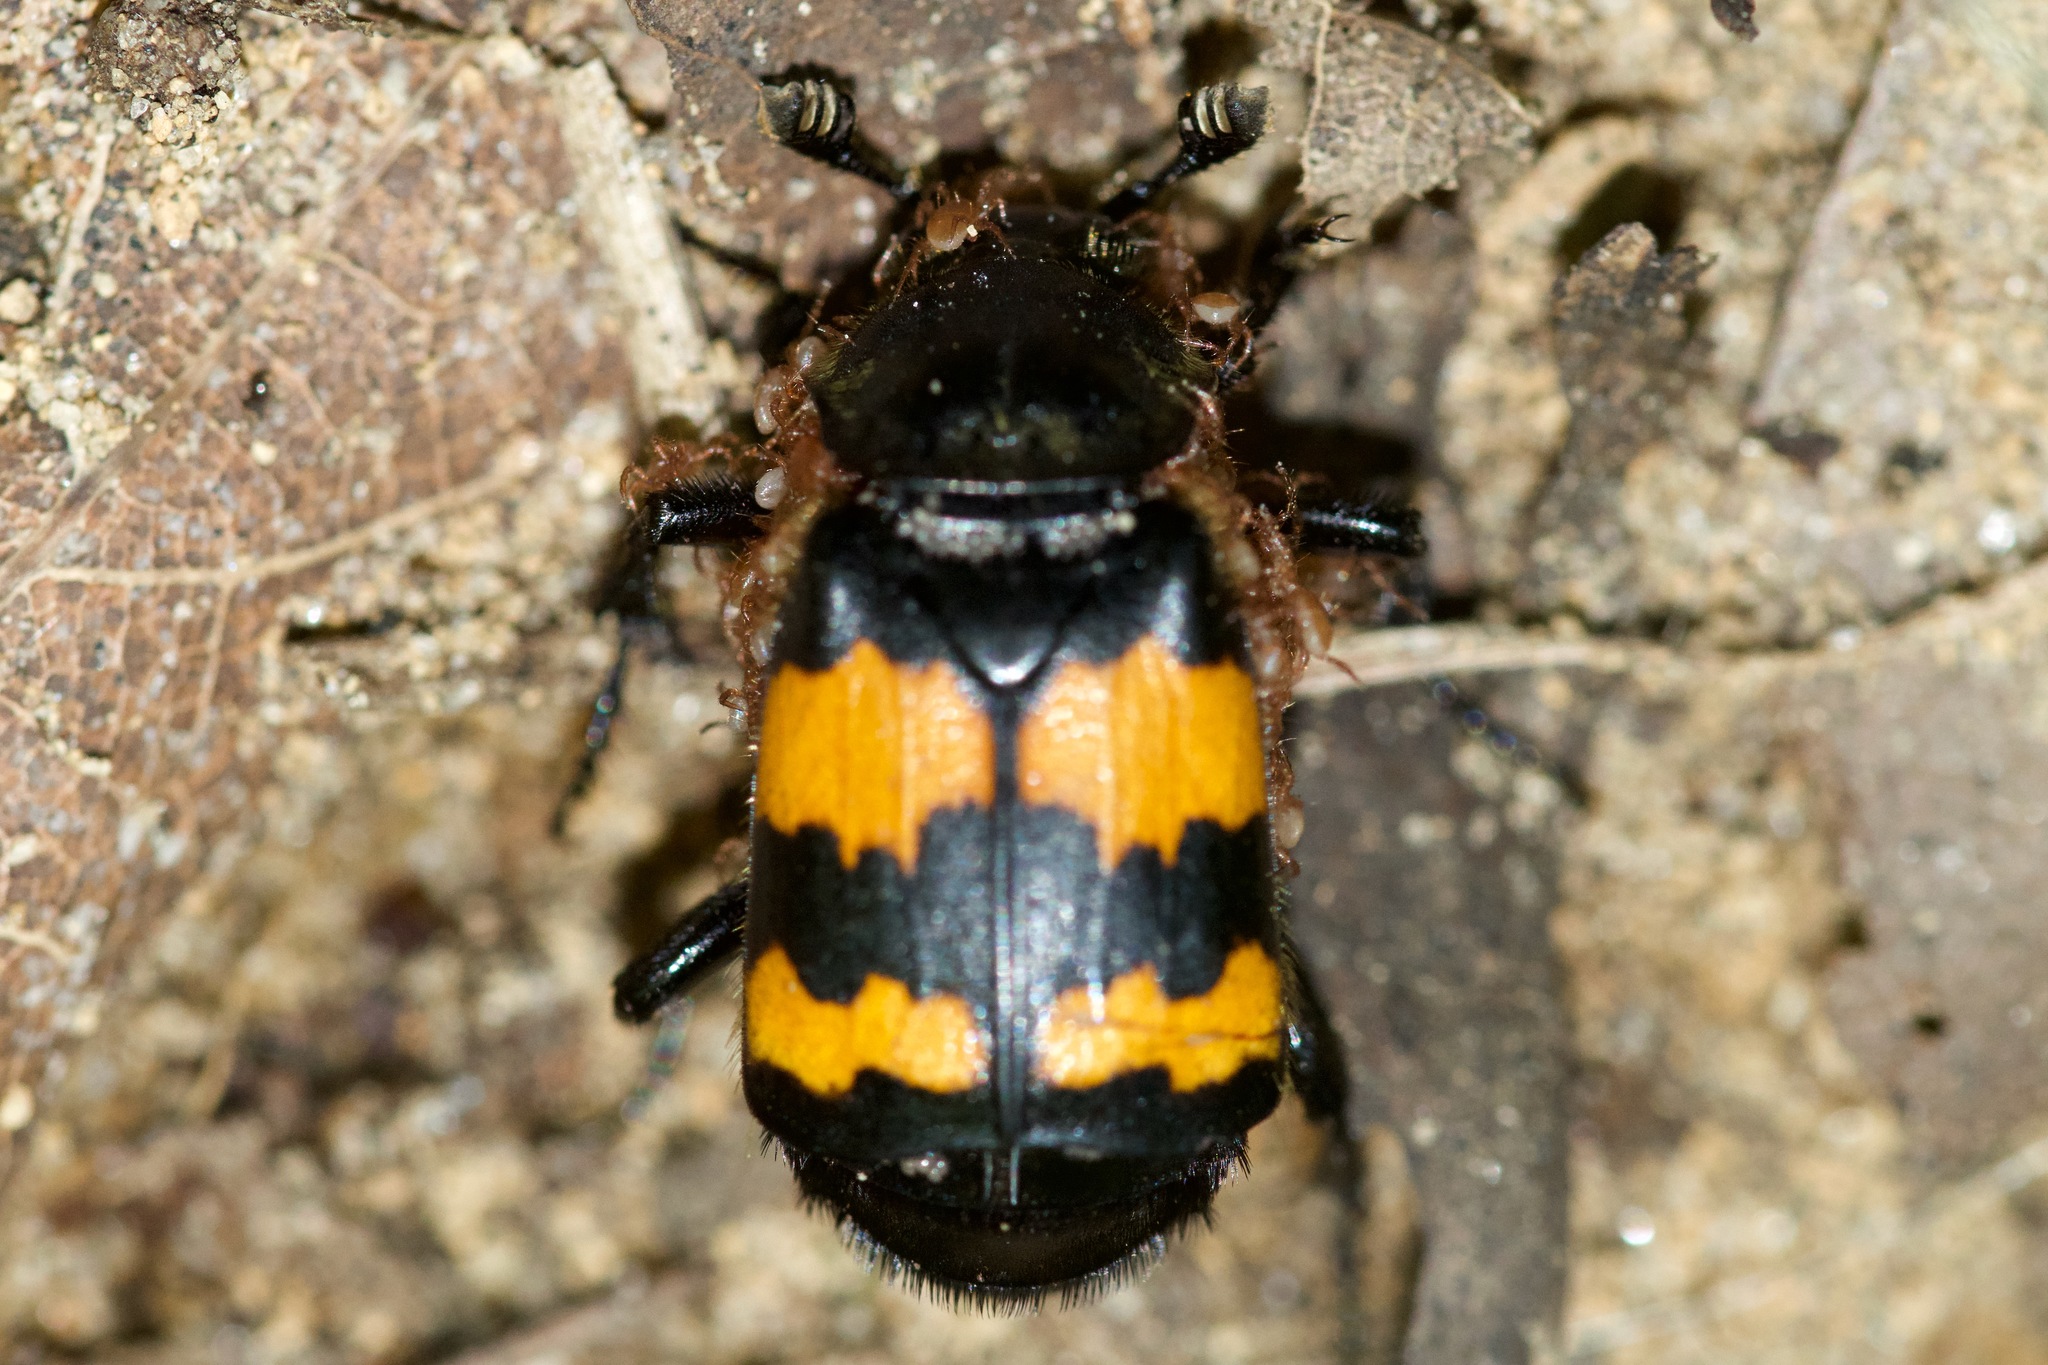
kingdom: Animalia
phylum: Arthropoda
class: Insecta
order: Coleoptera
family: Staphylinidae
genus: Nicrophorus
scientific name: Nicrophorus defodiens
